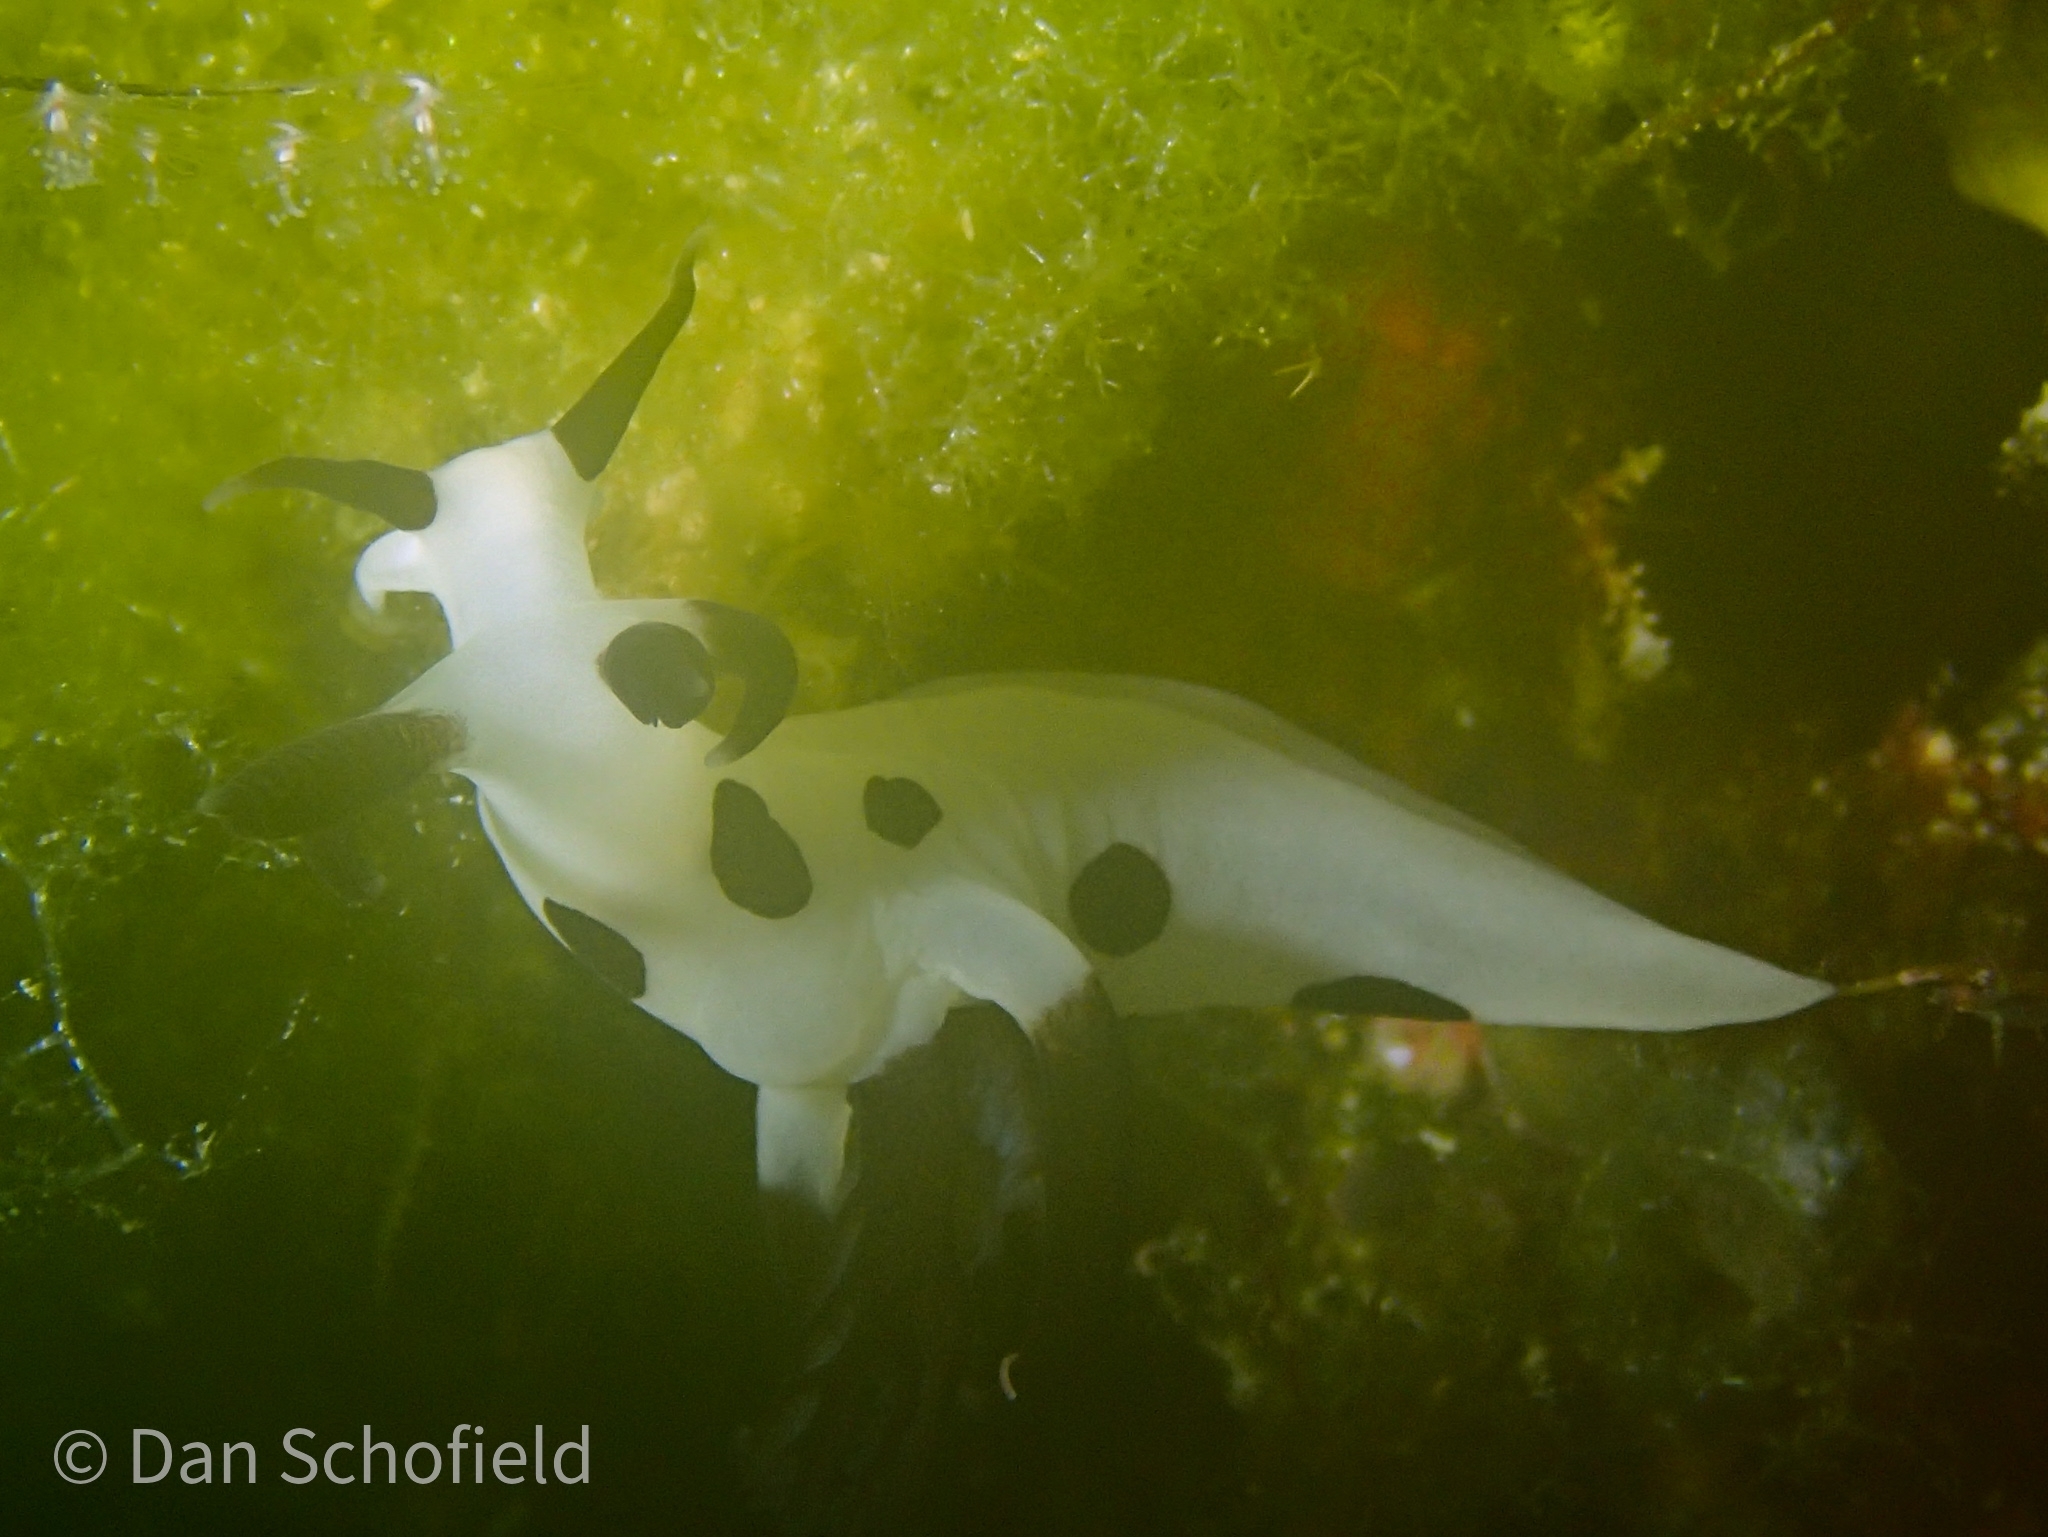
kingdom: Animalia
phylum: Mollusca
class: Gastropoda
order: Nudibranchia
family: Goniodorididae
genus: Trapania
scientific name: Trapania naeva
